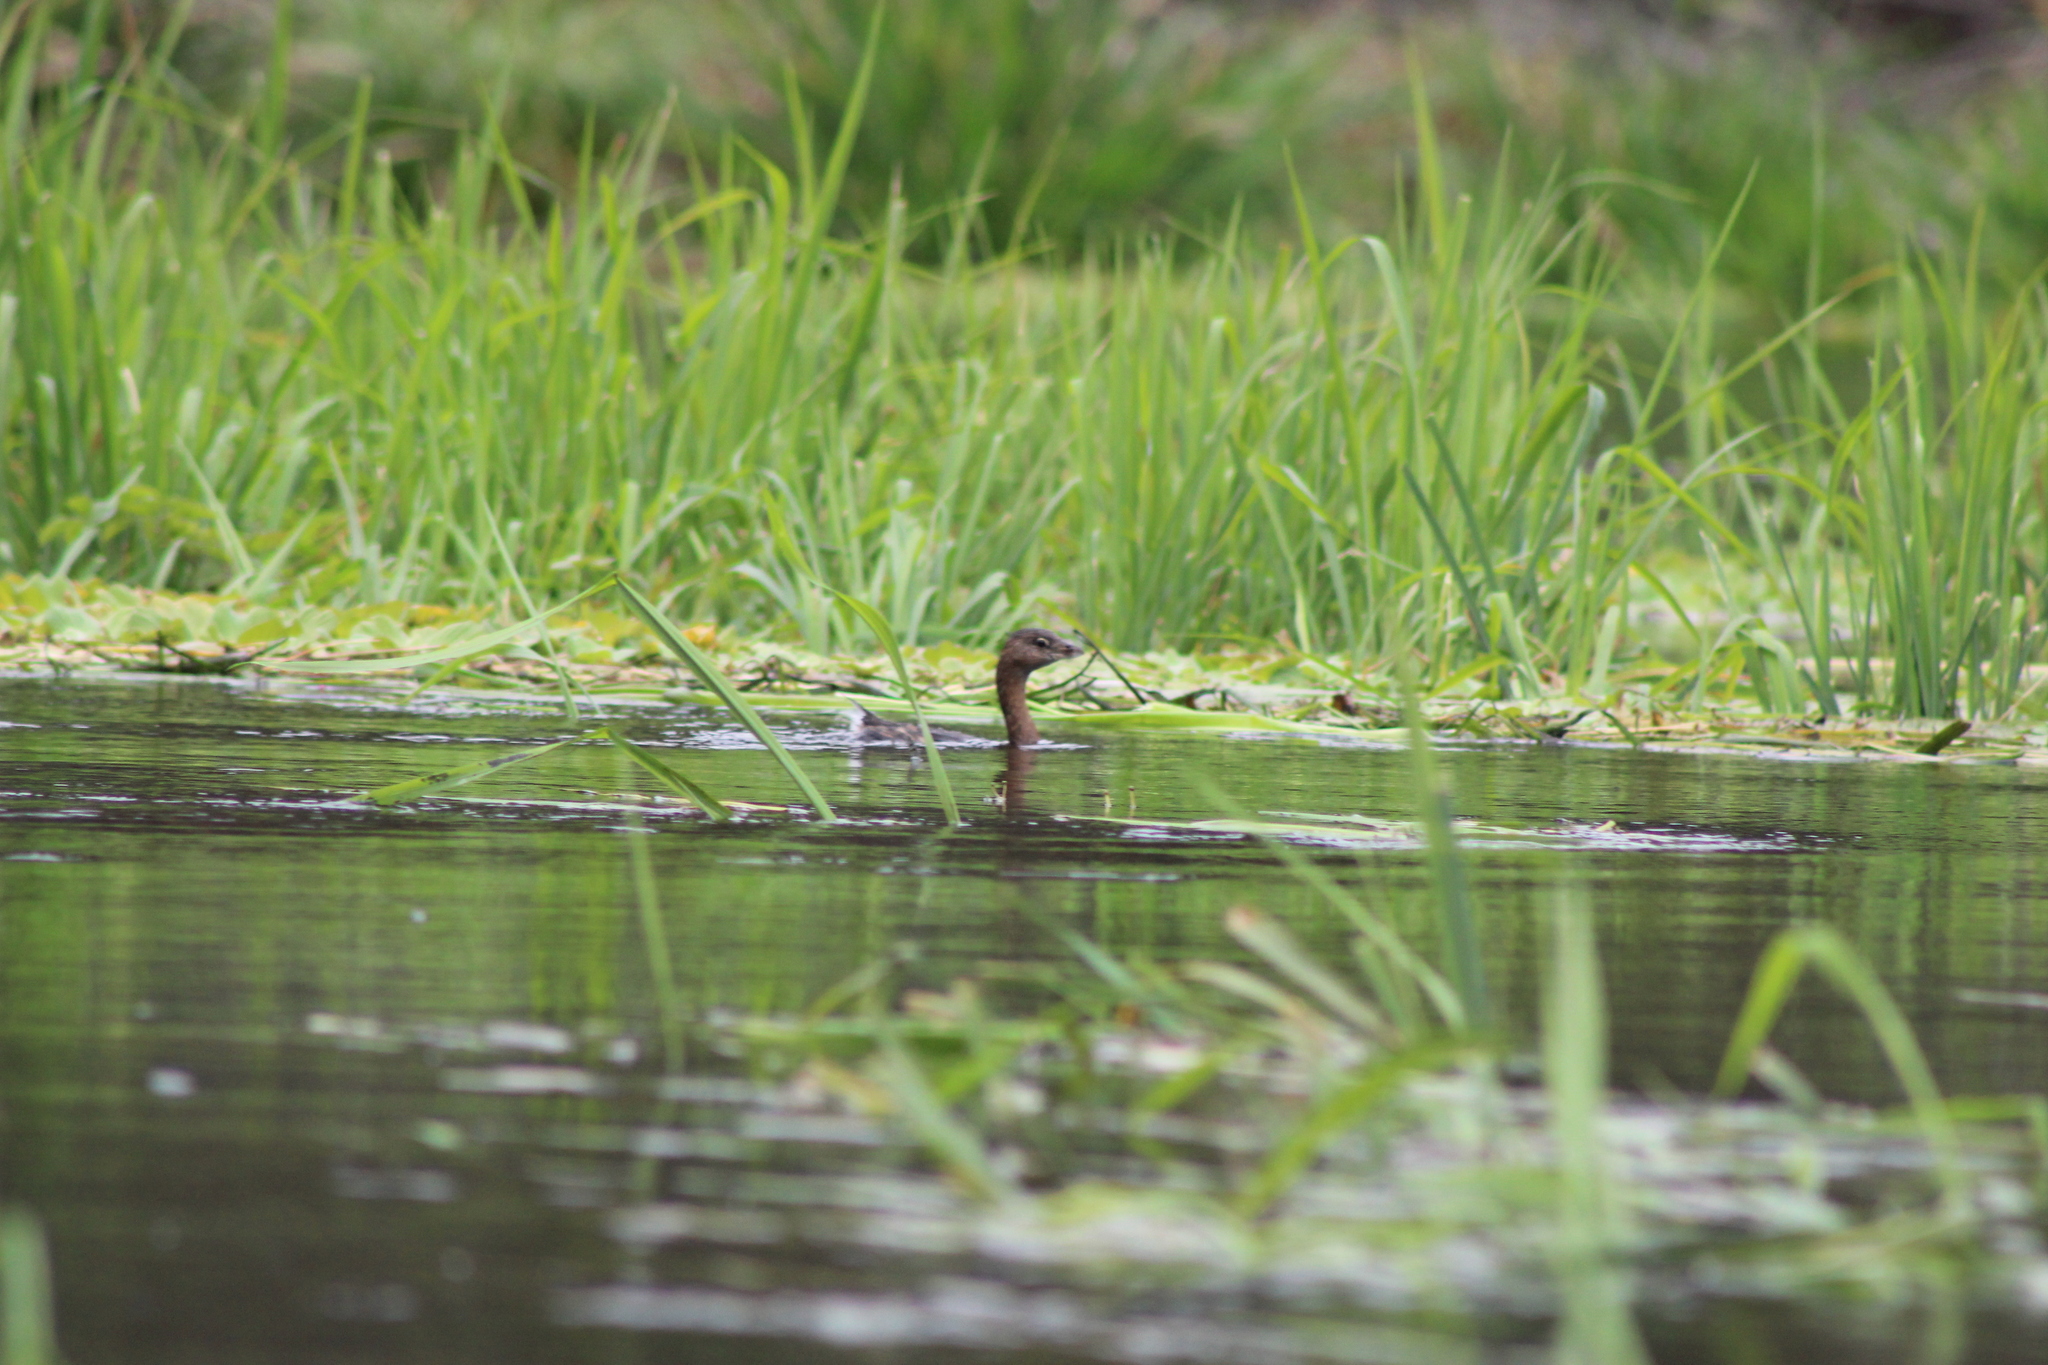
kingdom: Animalia
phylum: Chordata
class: Aves
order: Podicipediformes
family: Podicipedidae
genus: Podilymbus
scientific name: Podilymbus podiceps
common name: Pied-billed grebe
